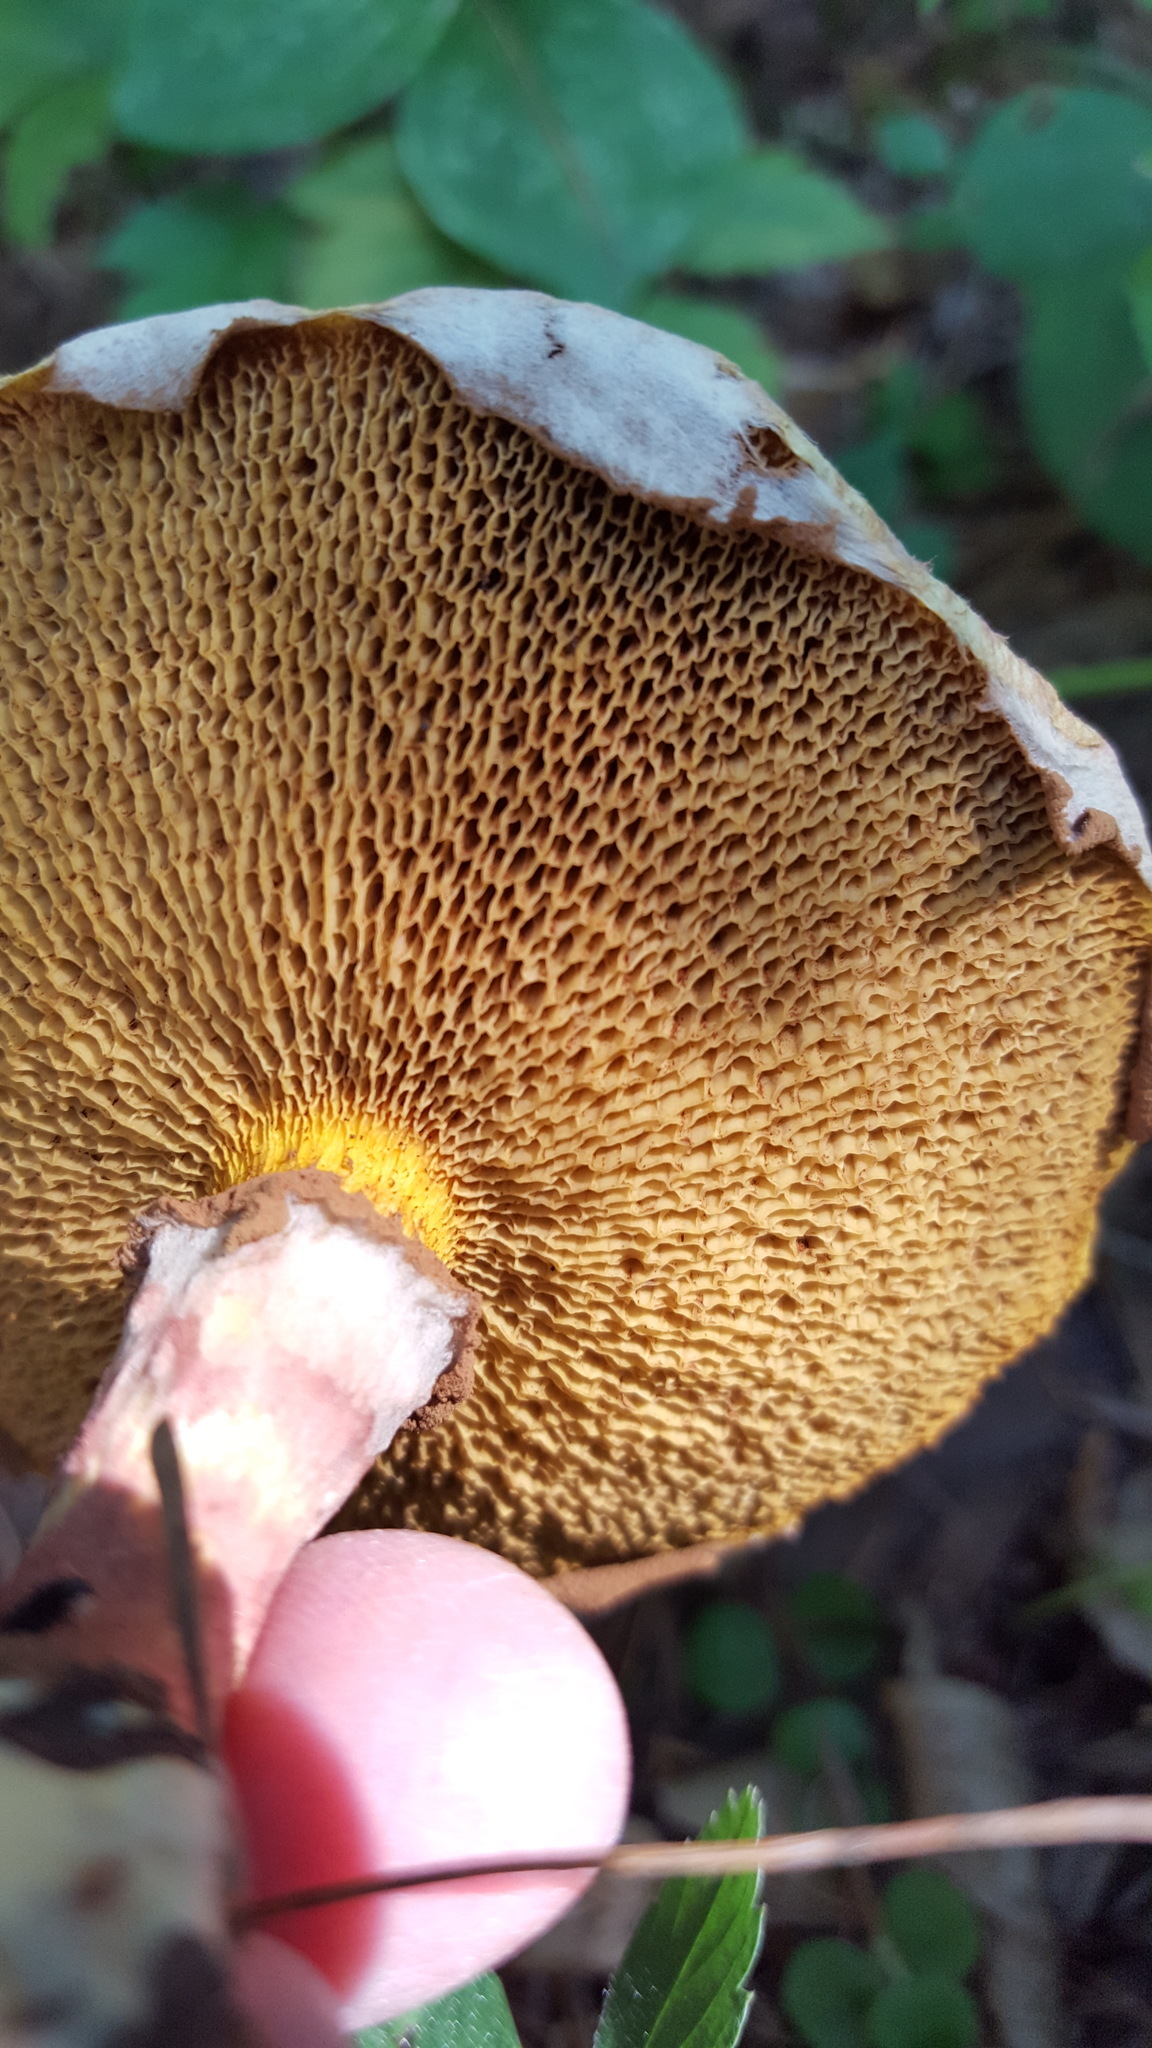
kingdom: Fungi
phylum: Basidiomycota
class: Agaricomycetes
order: Boletales
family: Suillaceae
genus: Suillus
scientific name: Suillus spraguei
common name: Painted suillus
